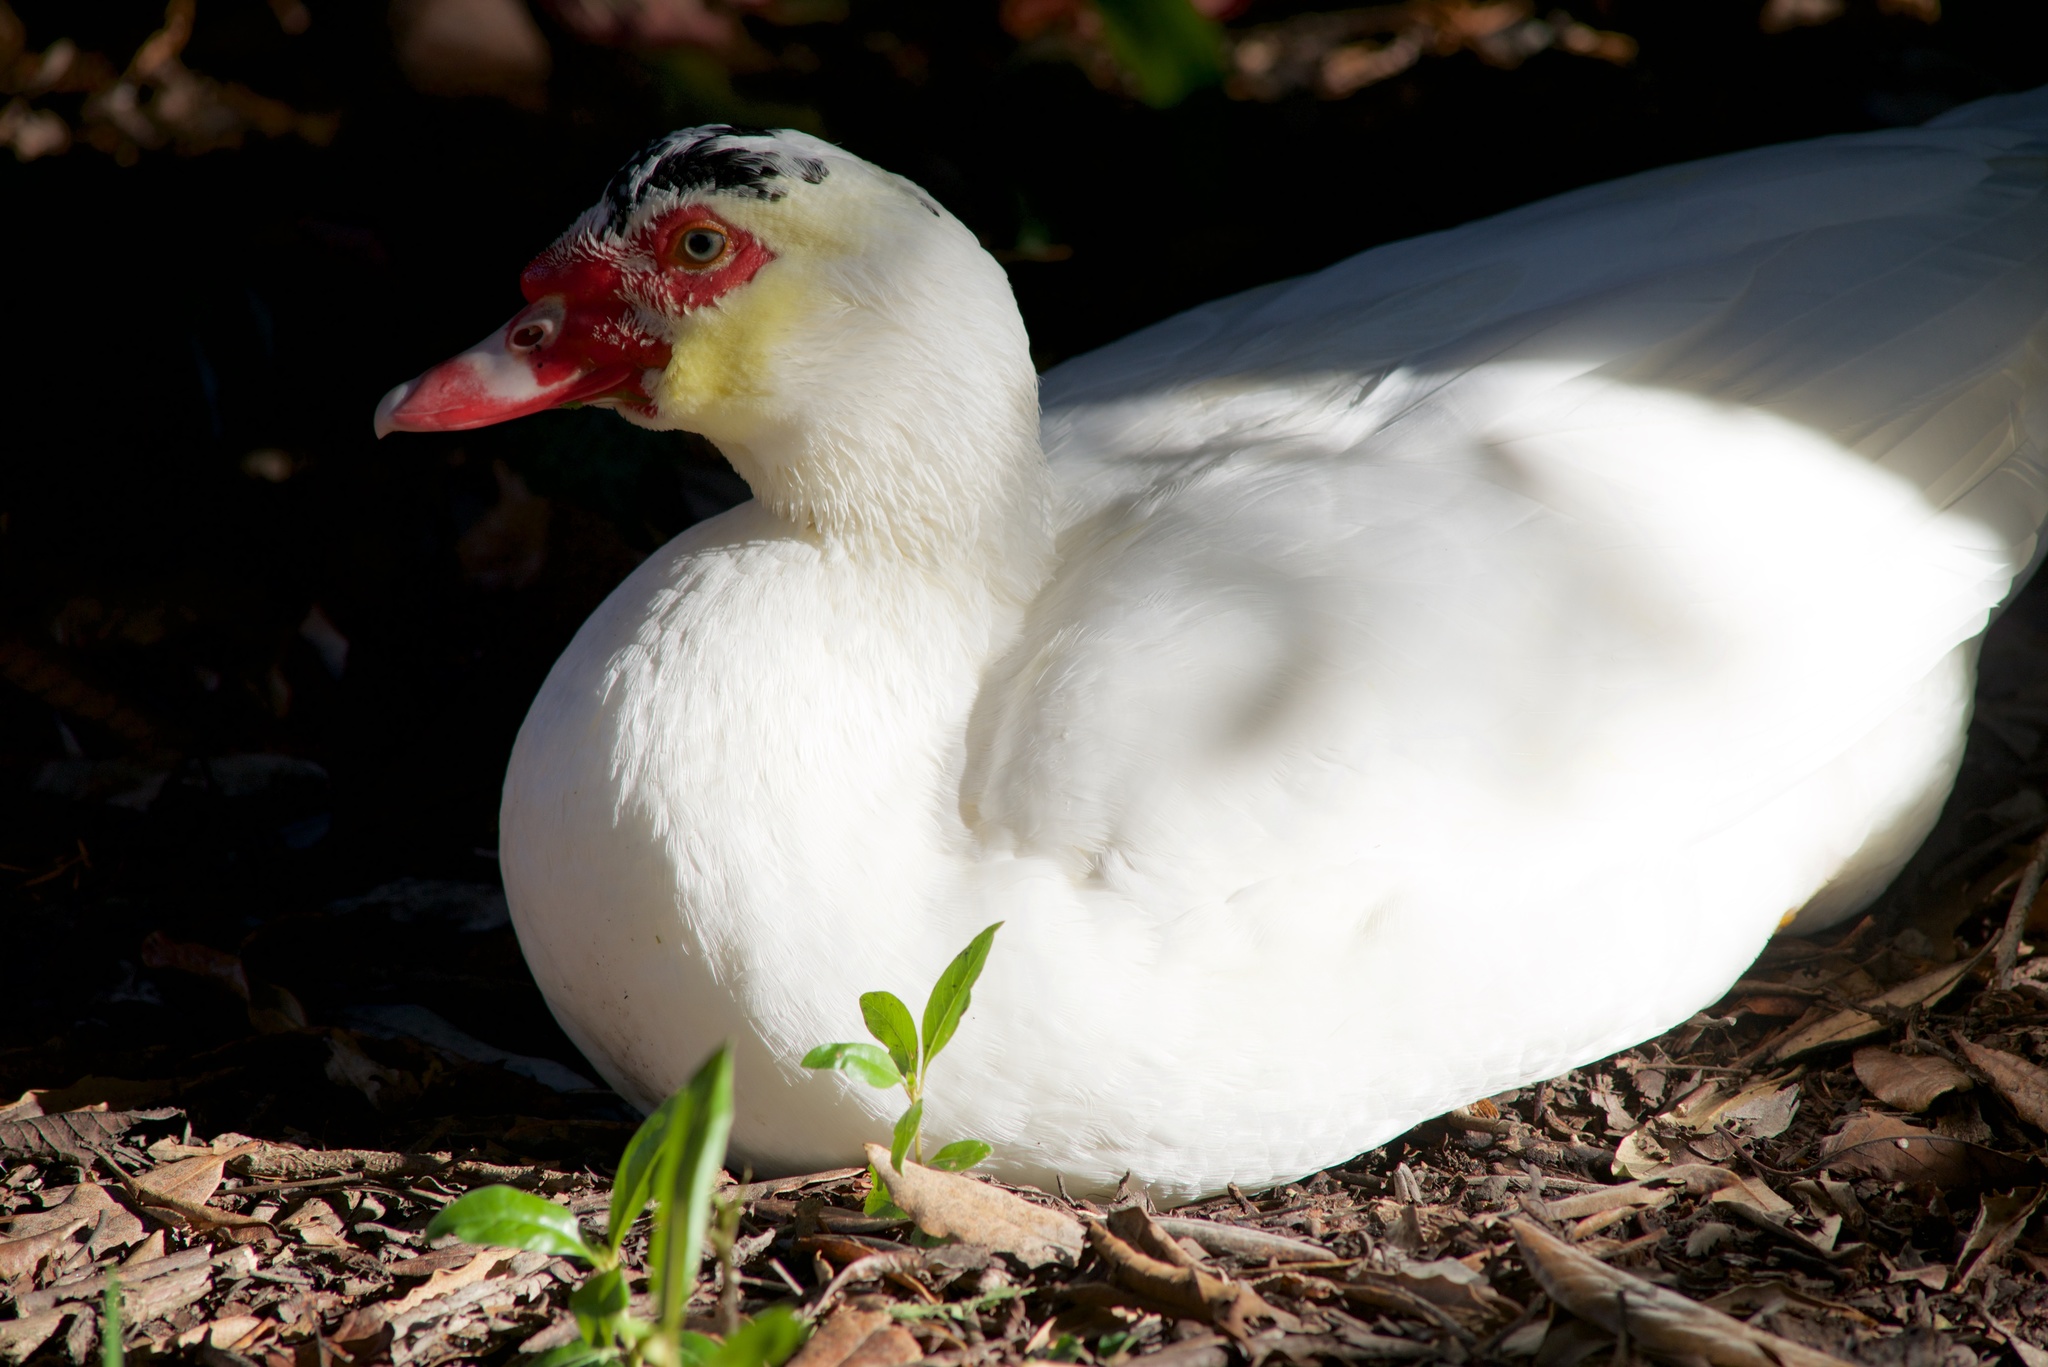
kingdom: Animalia
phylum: Chordata
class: Aves
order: Anseriformes
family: Anatidae
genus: Cairina
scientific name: Cairina moschata
